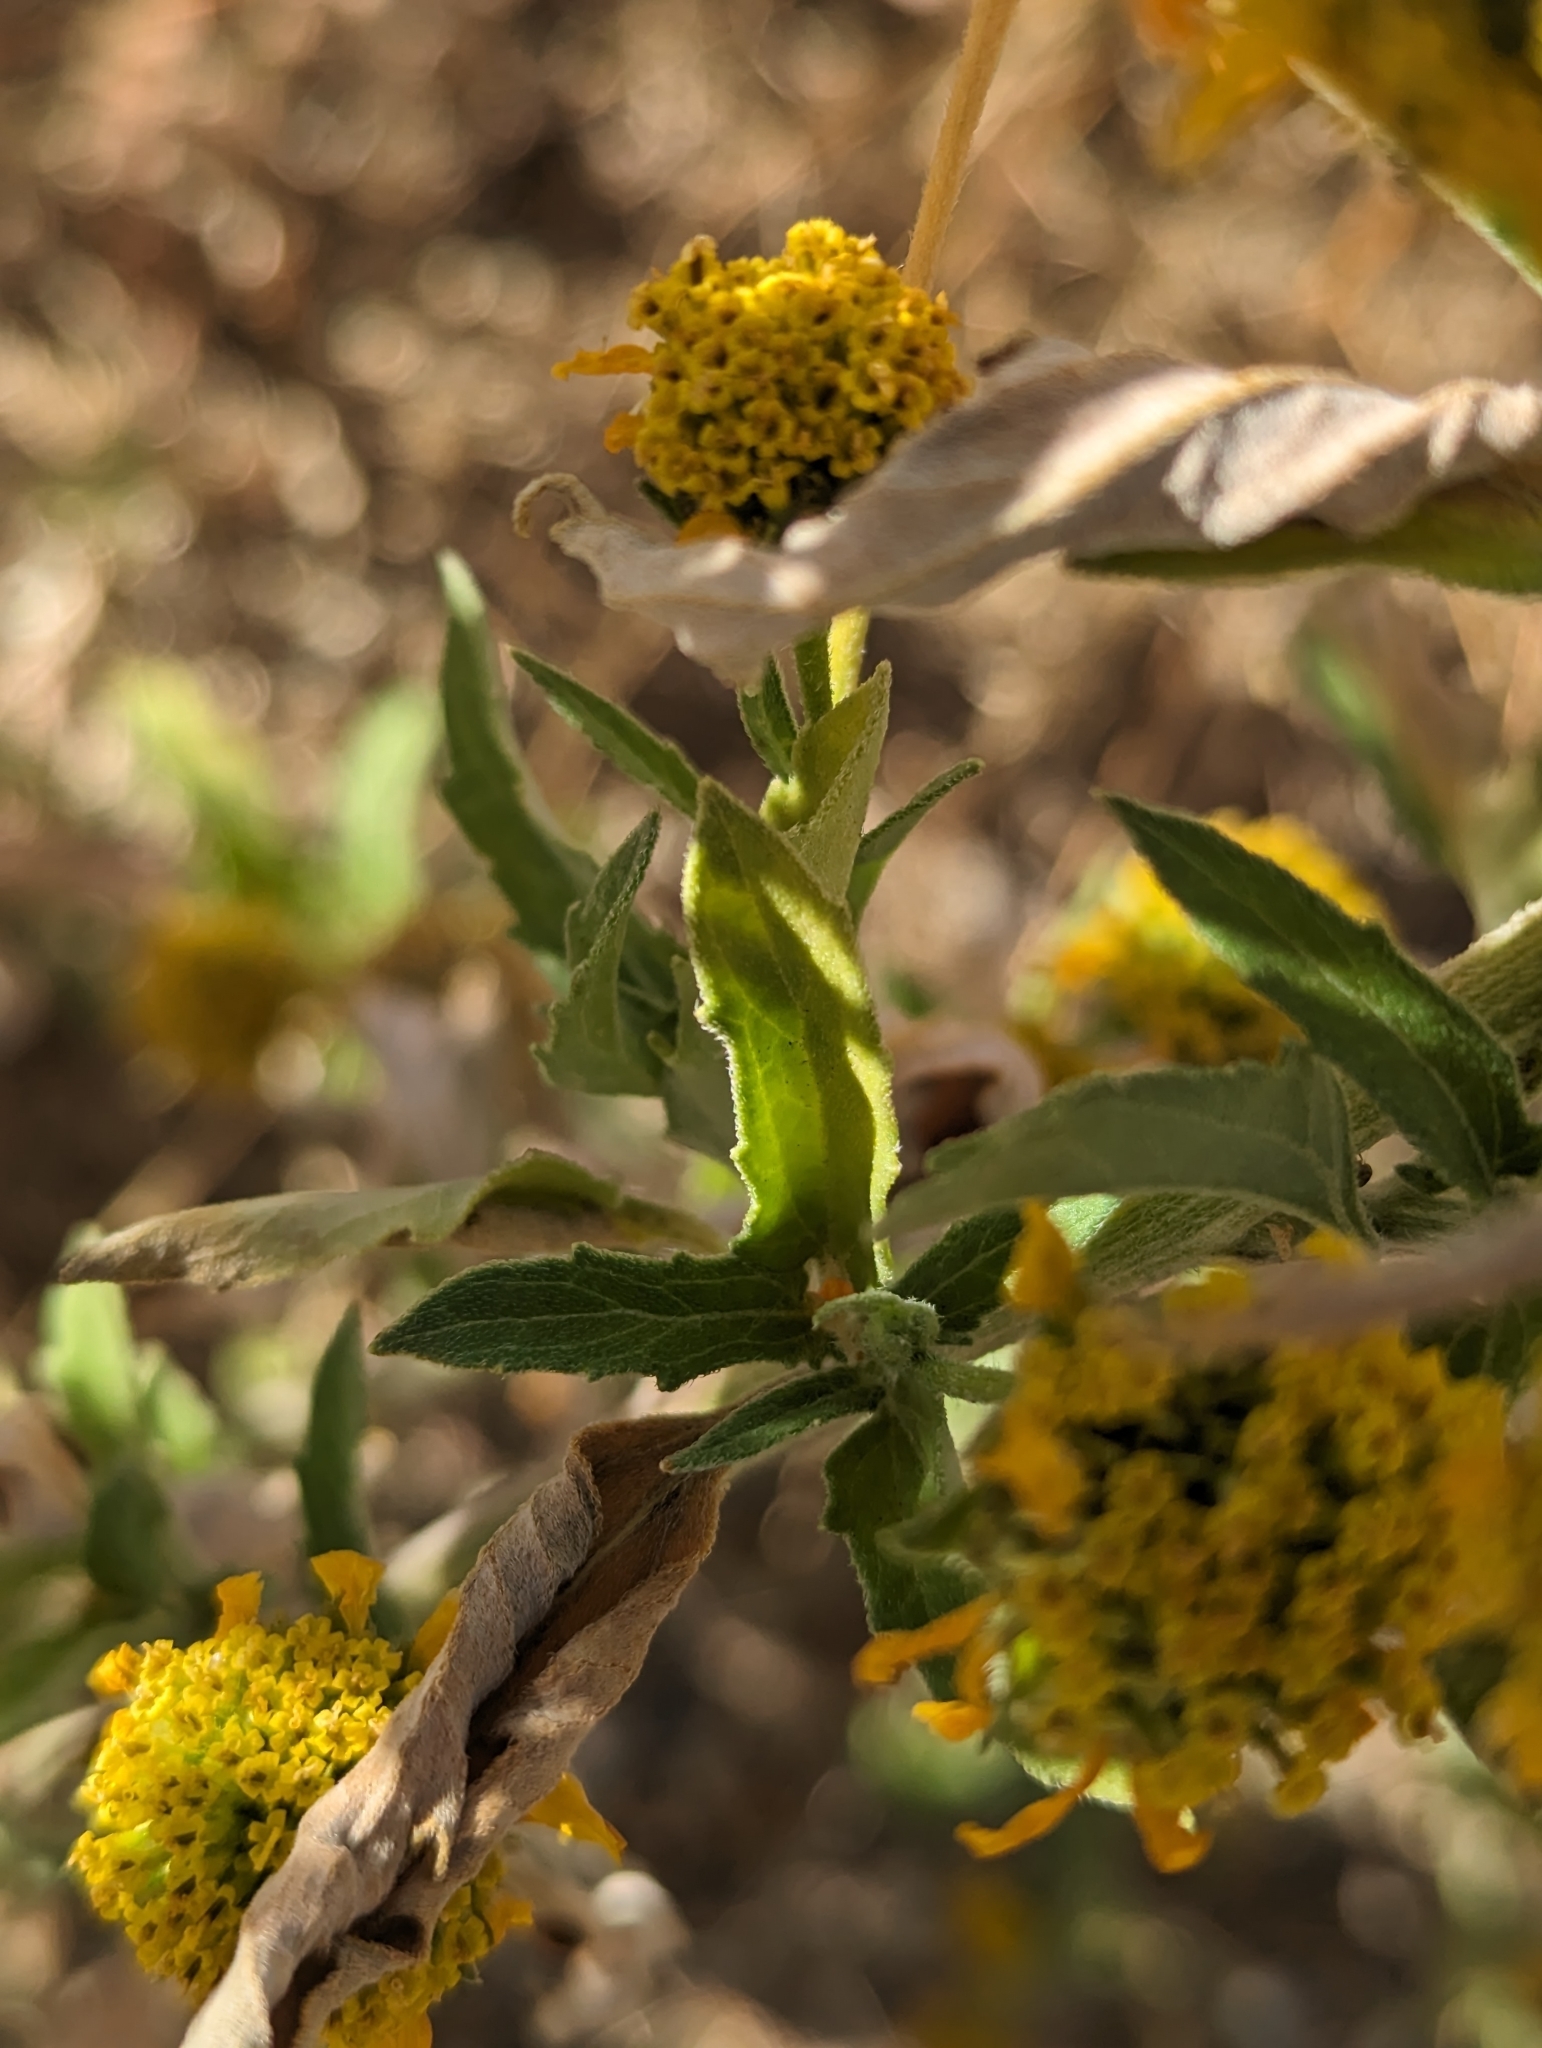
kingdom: Plantae
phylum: Tracheophyta
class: Magnoliopsida
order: Asterales
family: Asteraceae
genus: Verbesina
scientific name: Verbesina encelioides
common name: Golden crownbeard
